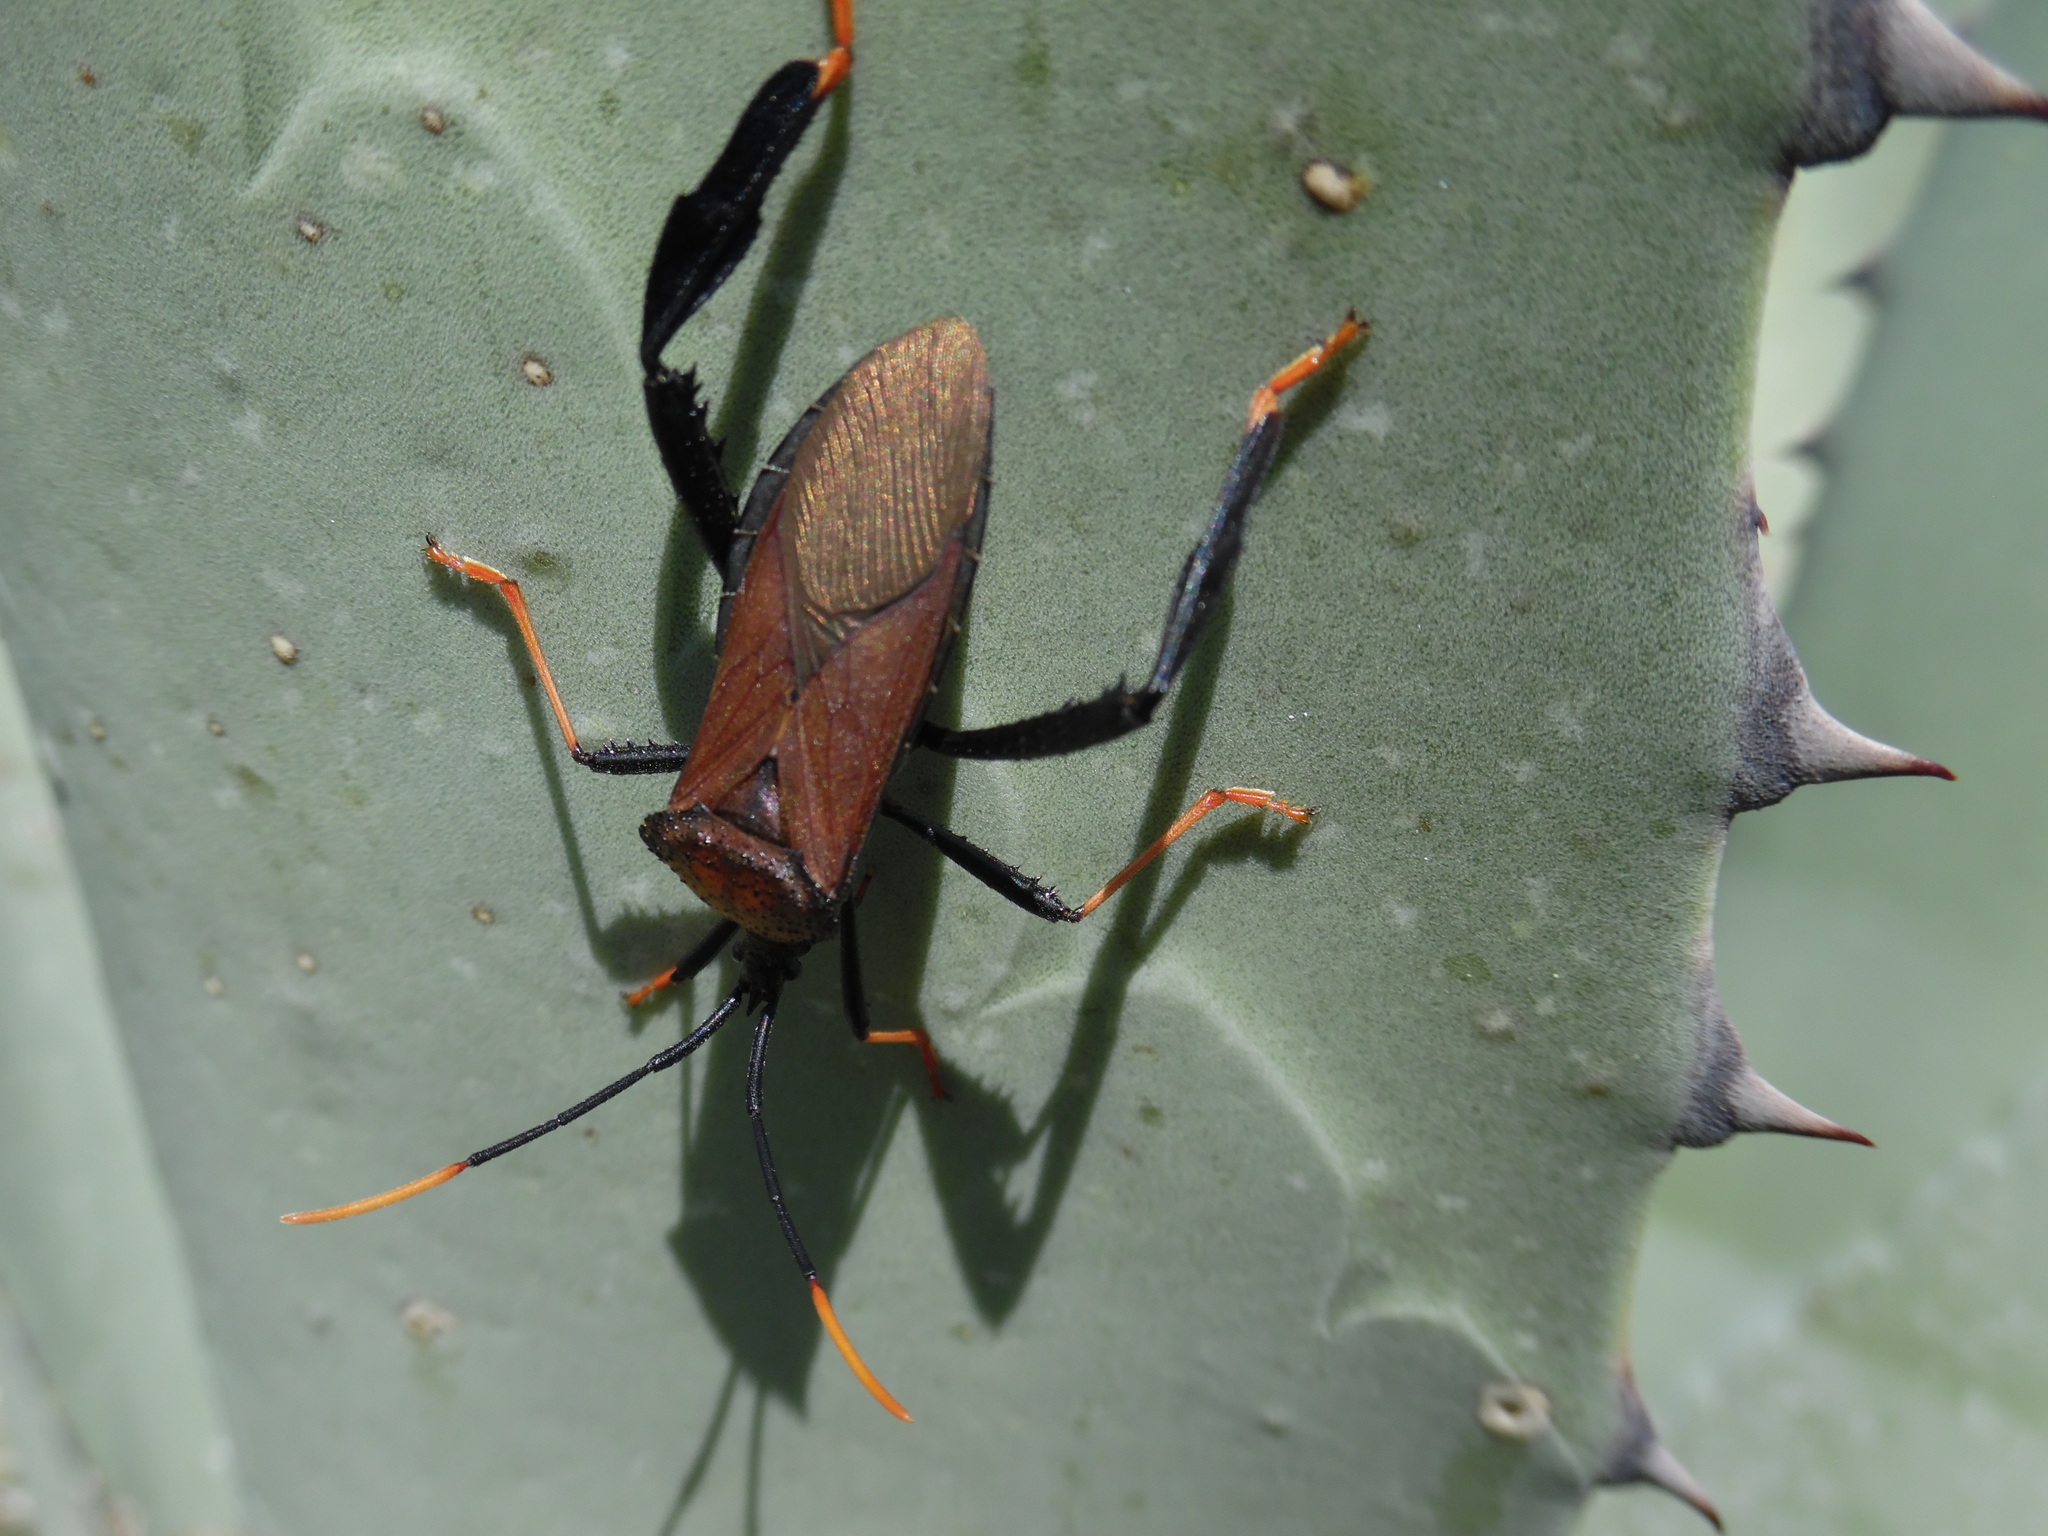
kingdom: Animalia
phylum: Arthropoda
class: Insecta
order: Hemiptera
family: Coreidae
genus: Acanthocephala
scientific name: Acanthocephala thomasi
